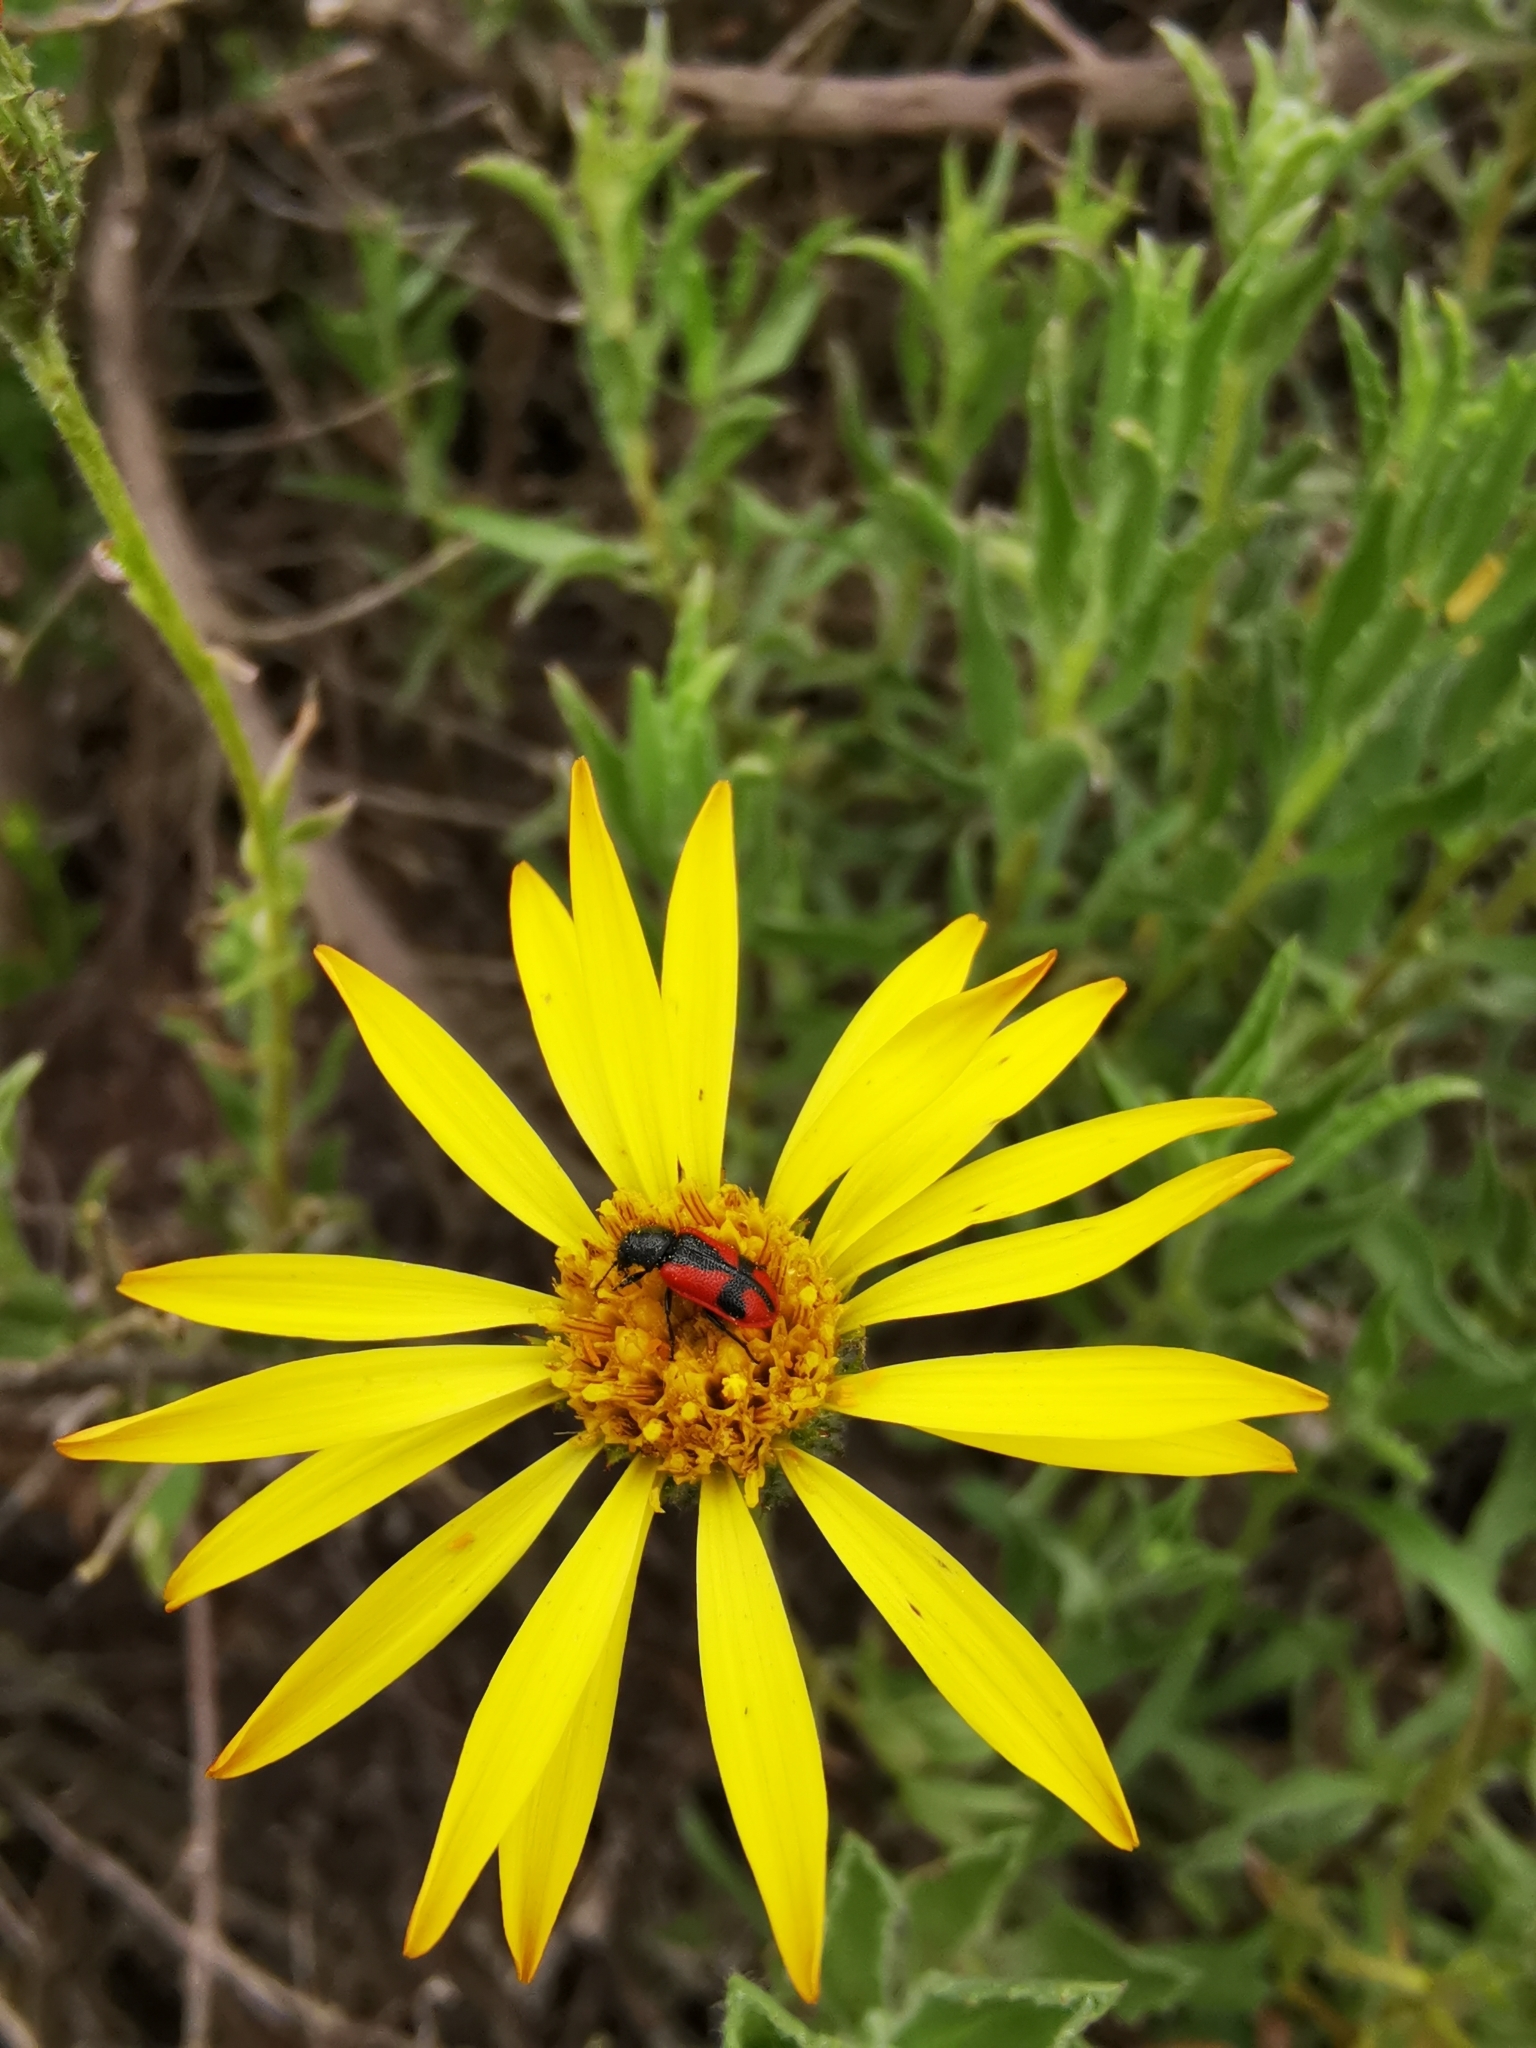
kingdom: Animalia
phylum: Arthropoda
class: Insecta
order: Coleoptera
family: Melyridae
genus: Arthrobrachus
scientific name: Arthrobrachus nigromaculatus
